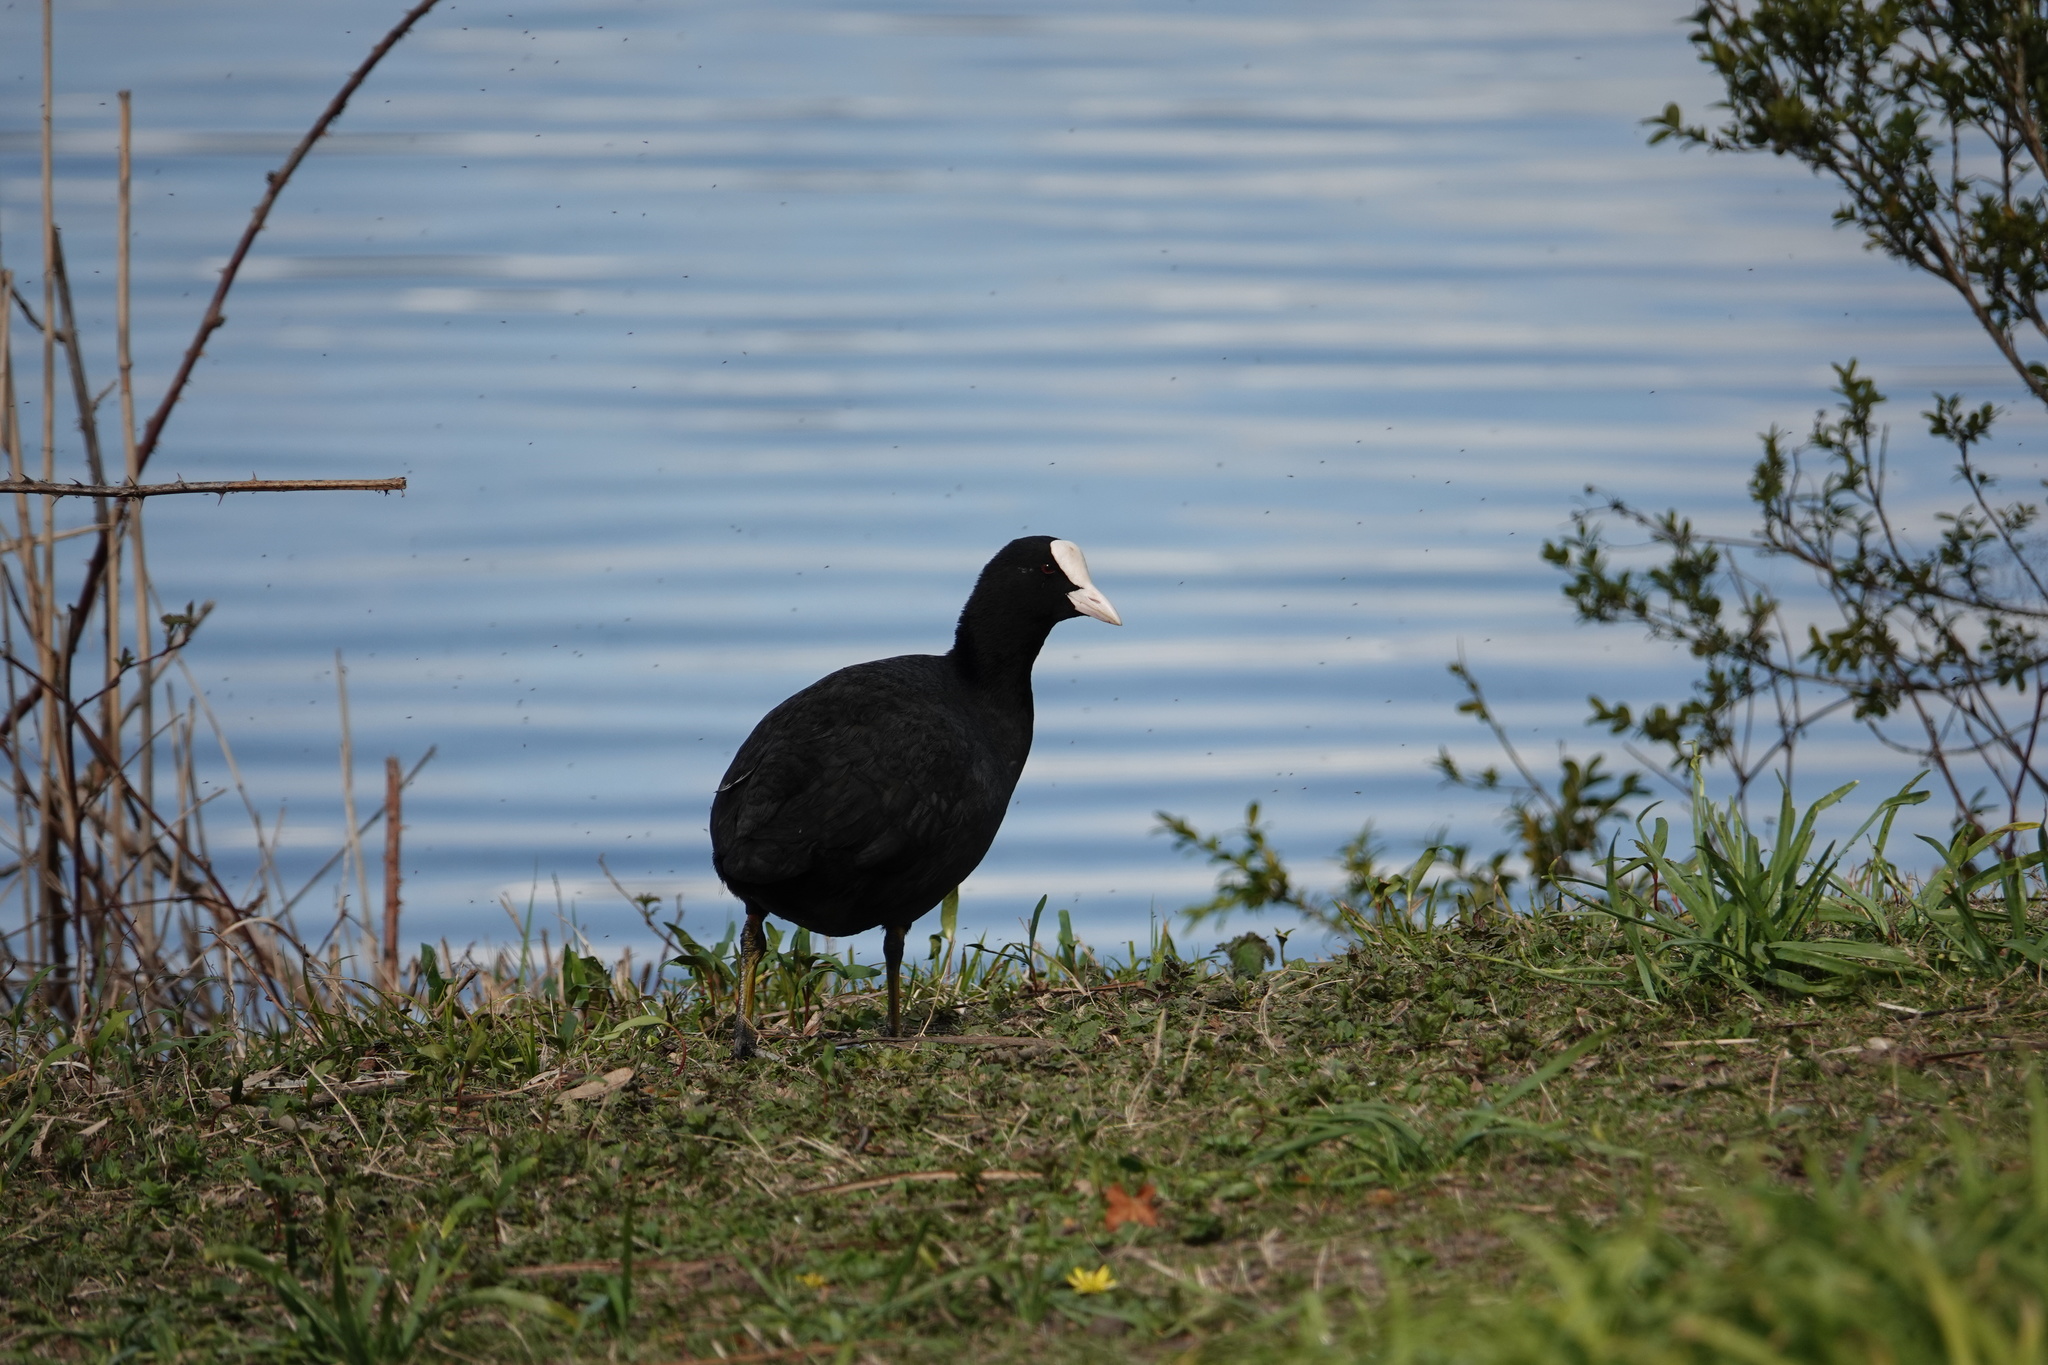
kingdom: Animalia
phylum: Chordata
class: Aves
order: Gruiformes
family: Rallidae
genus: Fulica
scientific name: Fulica atra
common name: Eurasian coot
